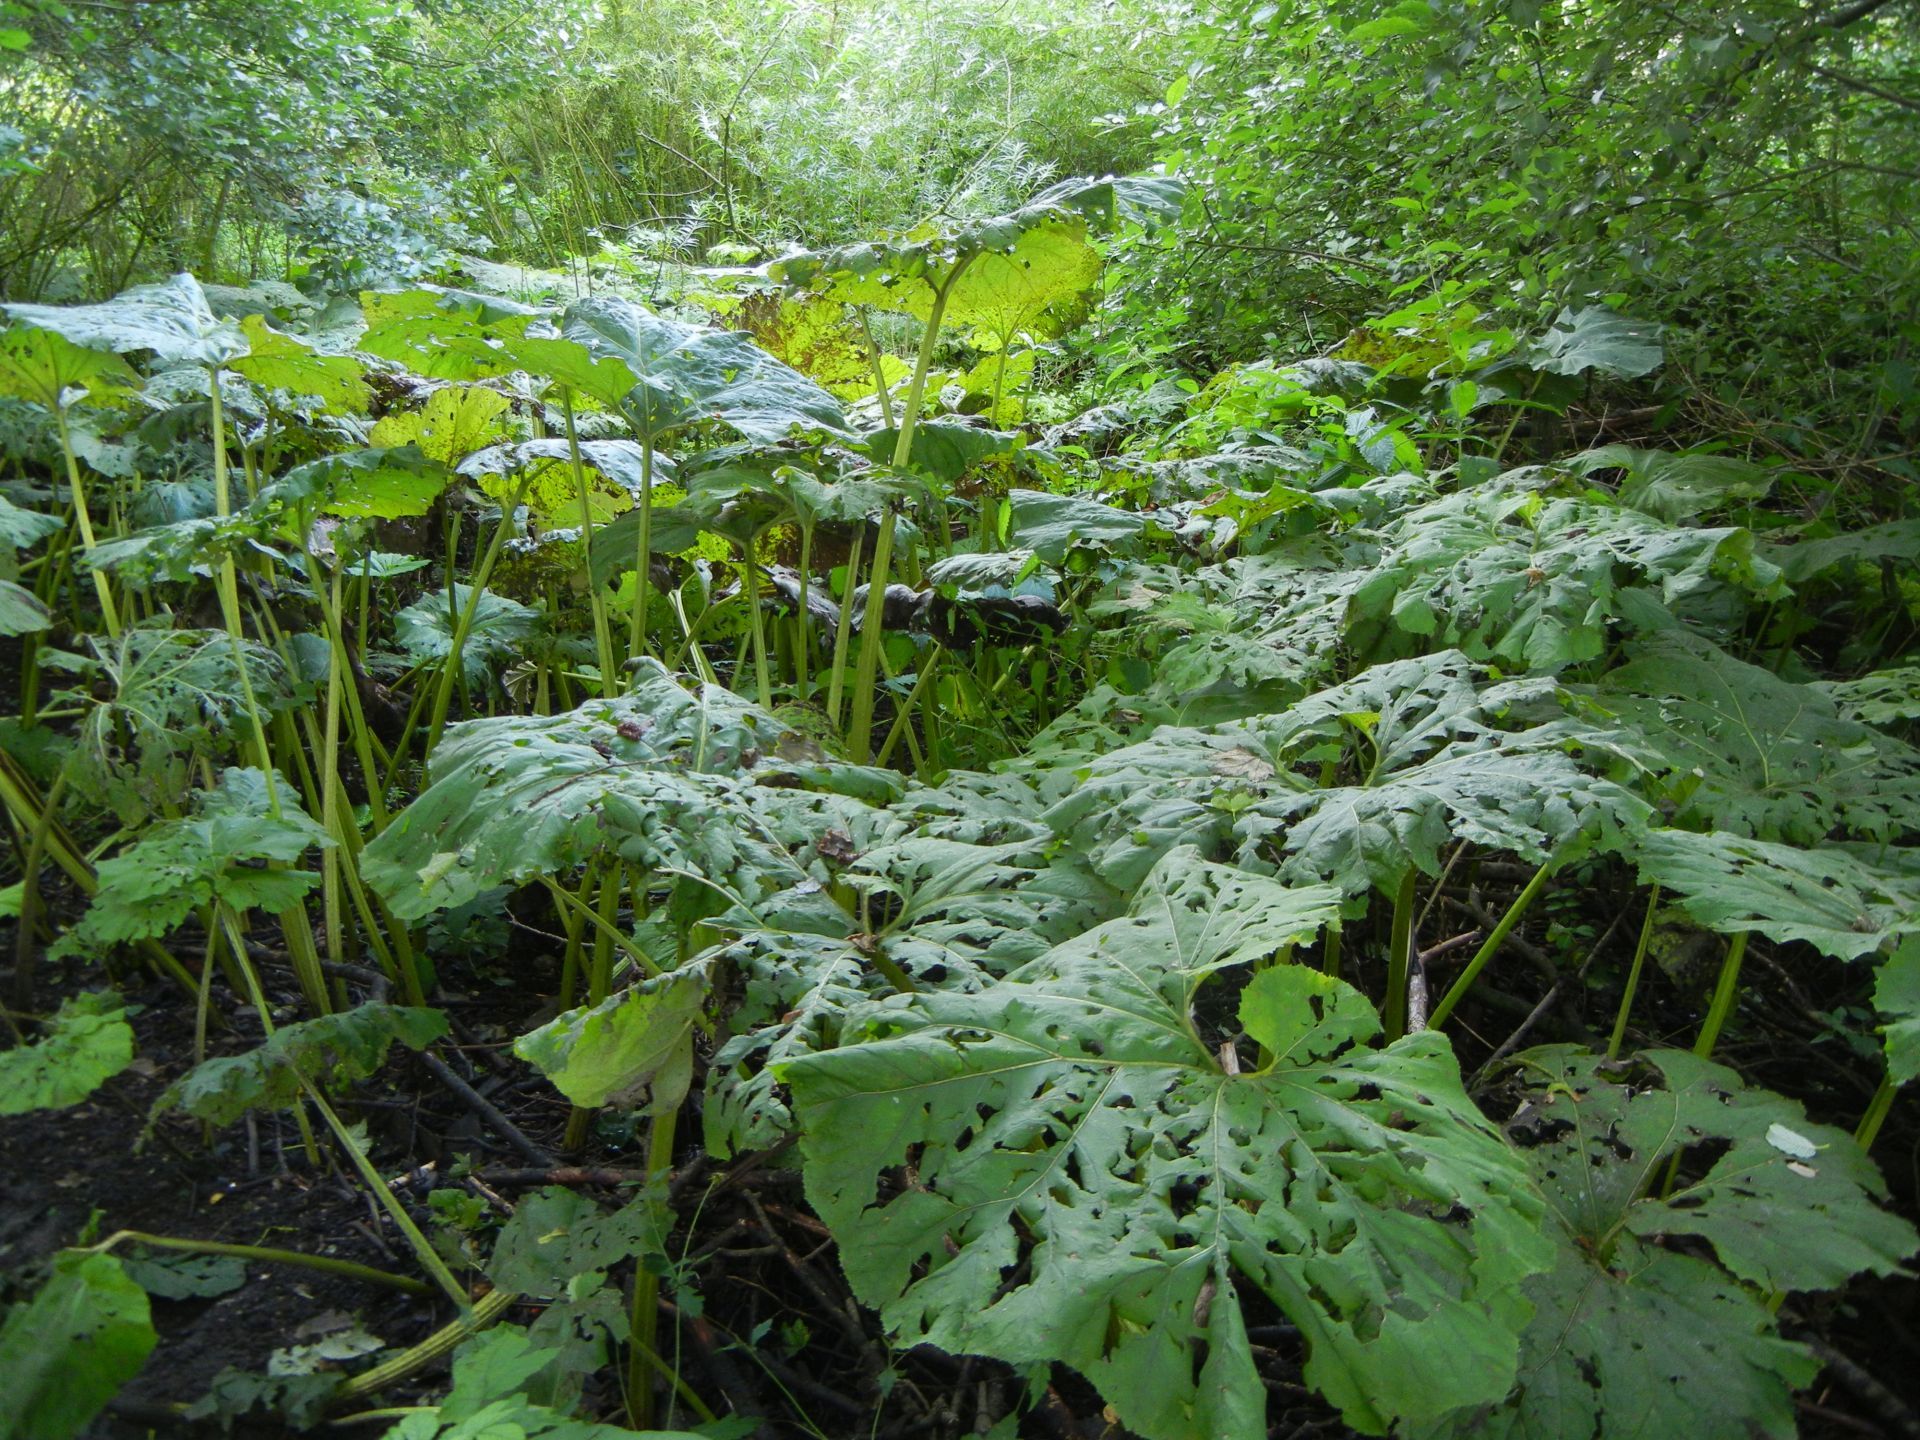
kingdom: Plantae
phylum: Tracheophyta
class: Magnoliopsida
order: Asterales
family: Asteraceae
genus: Petasites
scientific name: Petasites hybridus
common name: Butterbur
